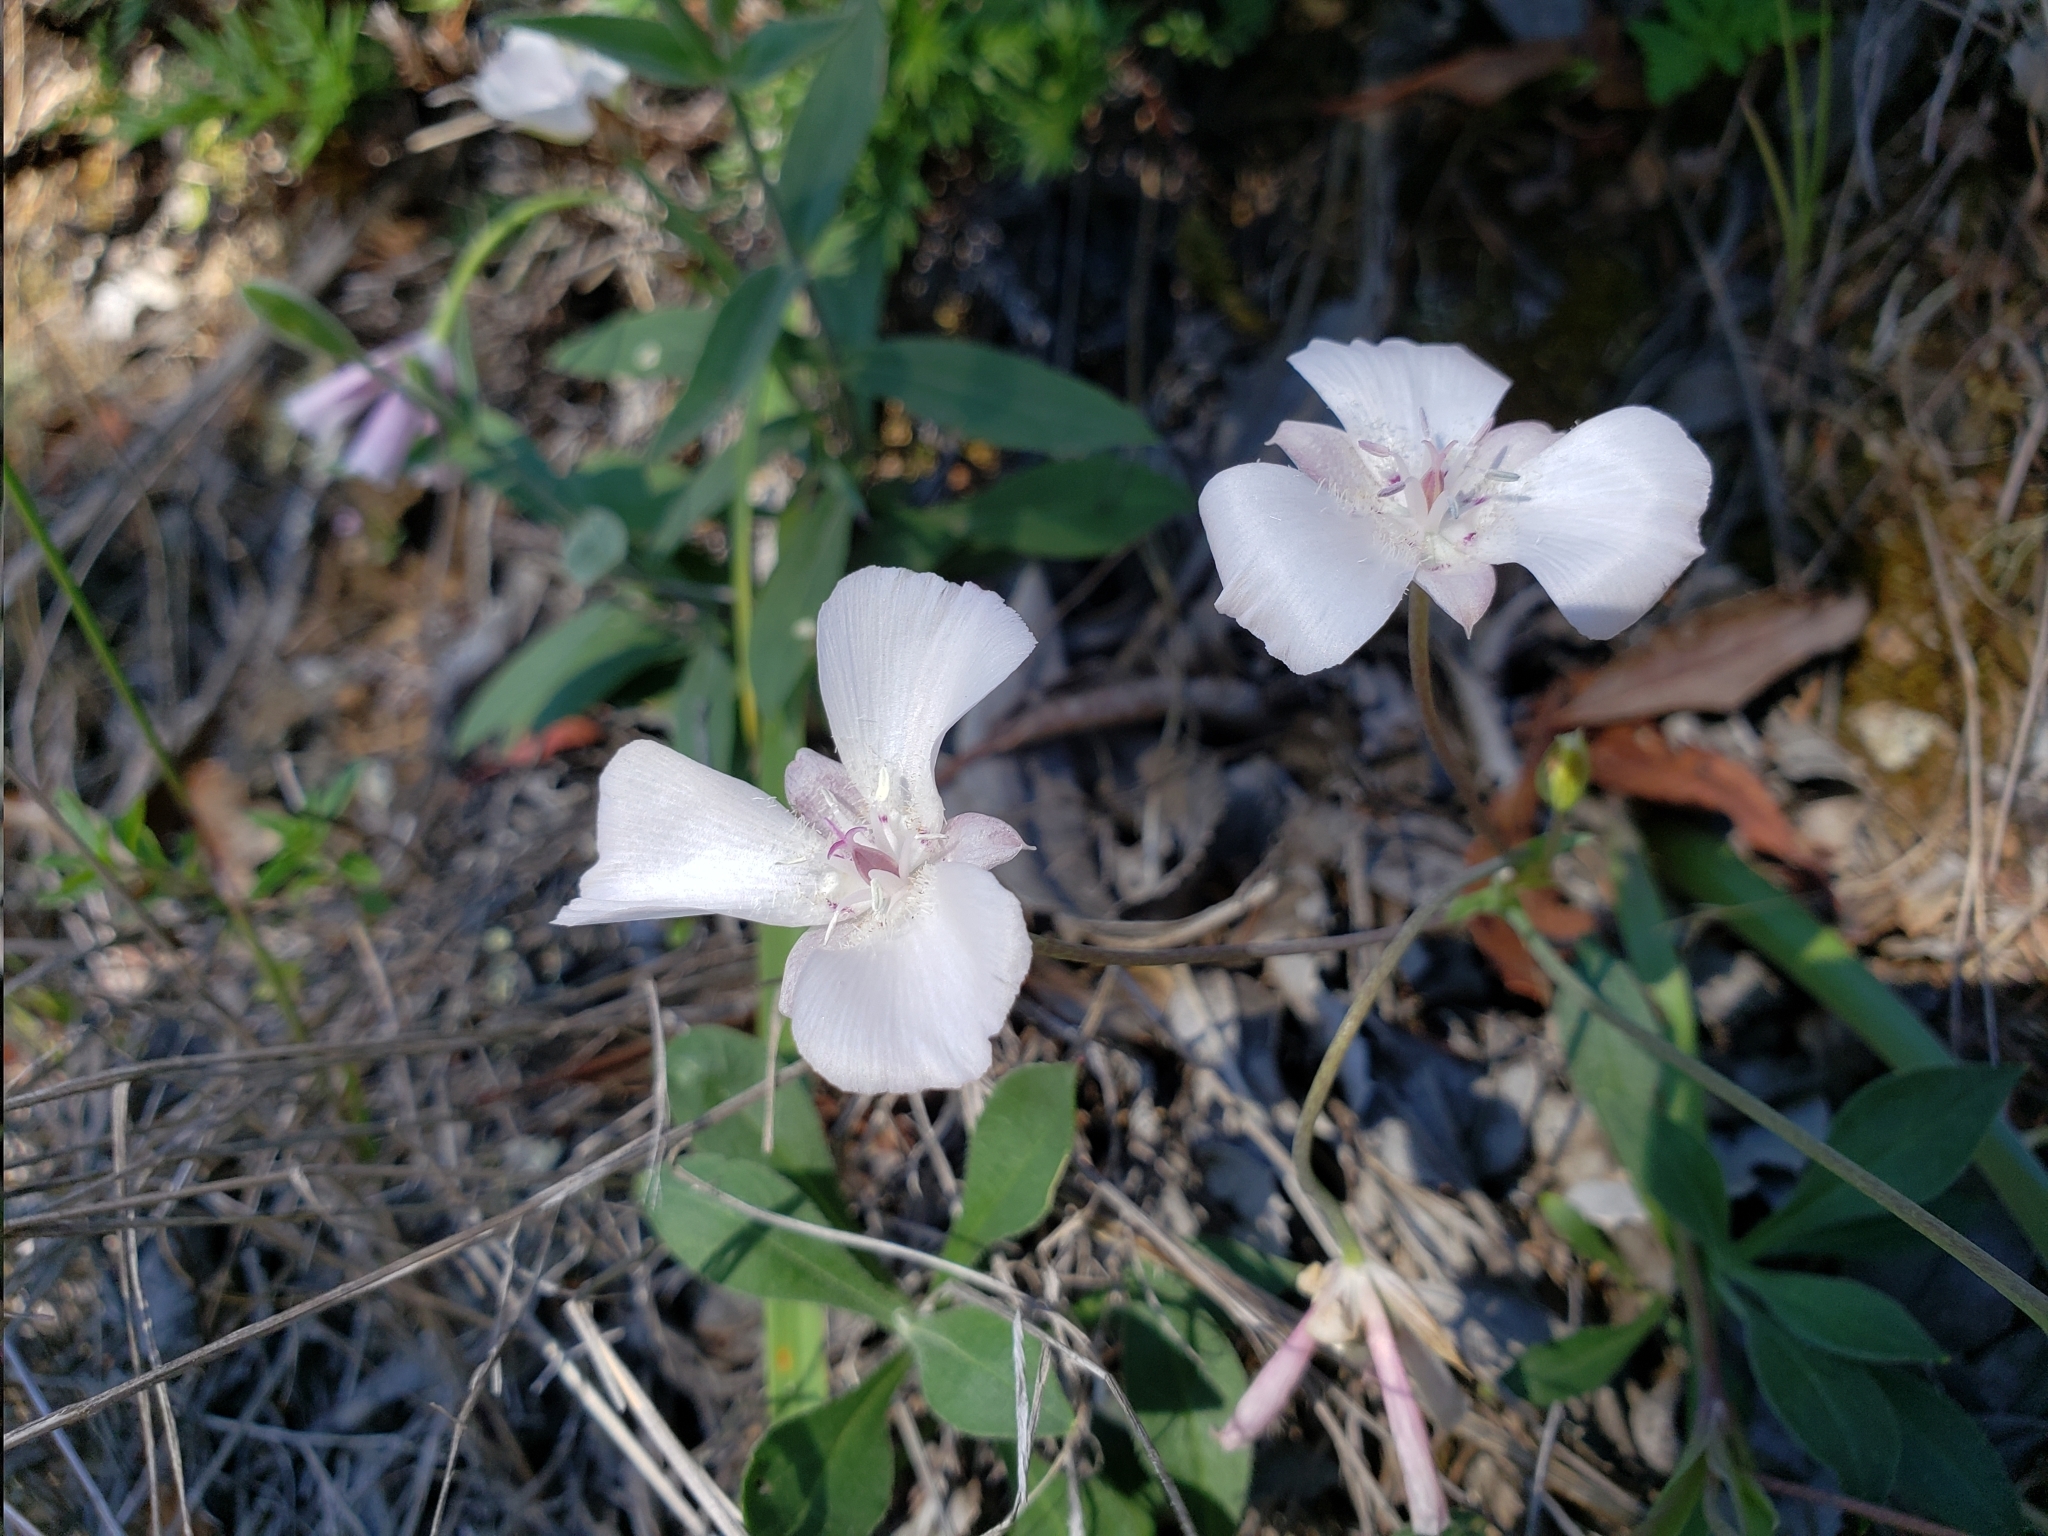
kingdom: Plantae
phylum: Tracheophyta
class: Liliopsida
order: Liliales
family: Liliaceae
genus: Calochortus
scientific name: Calochortus umbellatus
